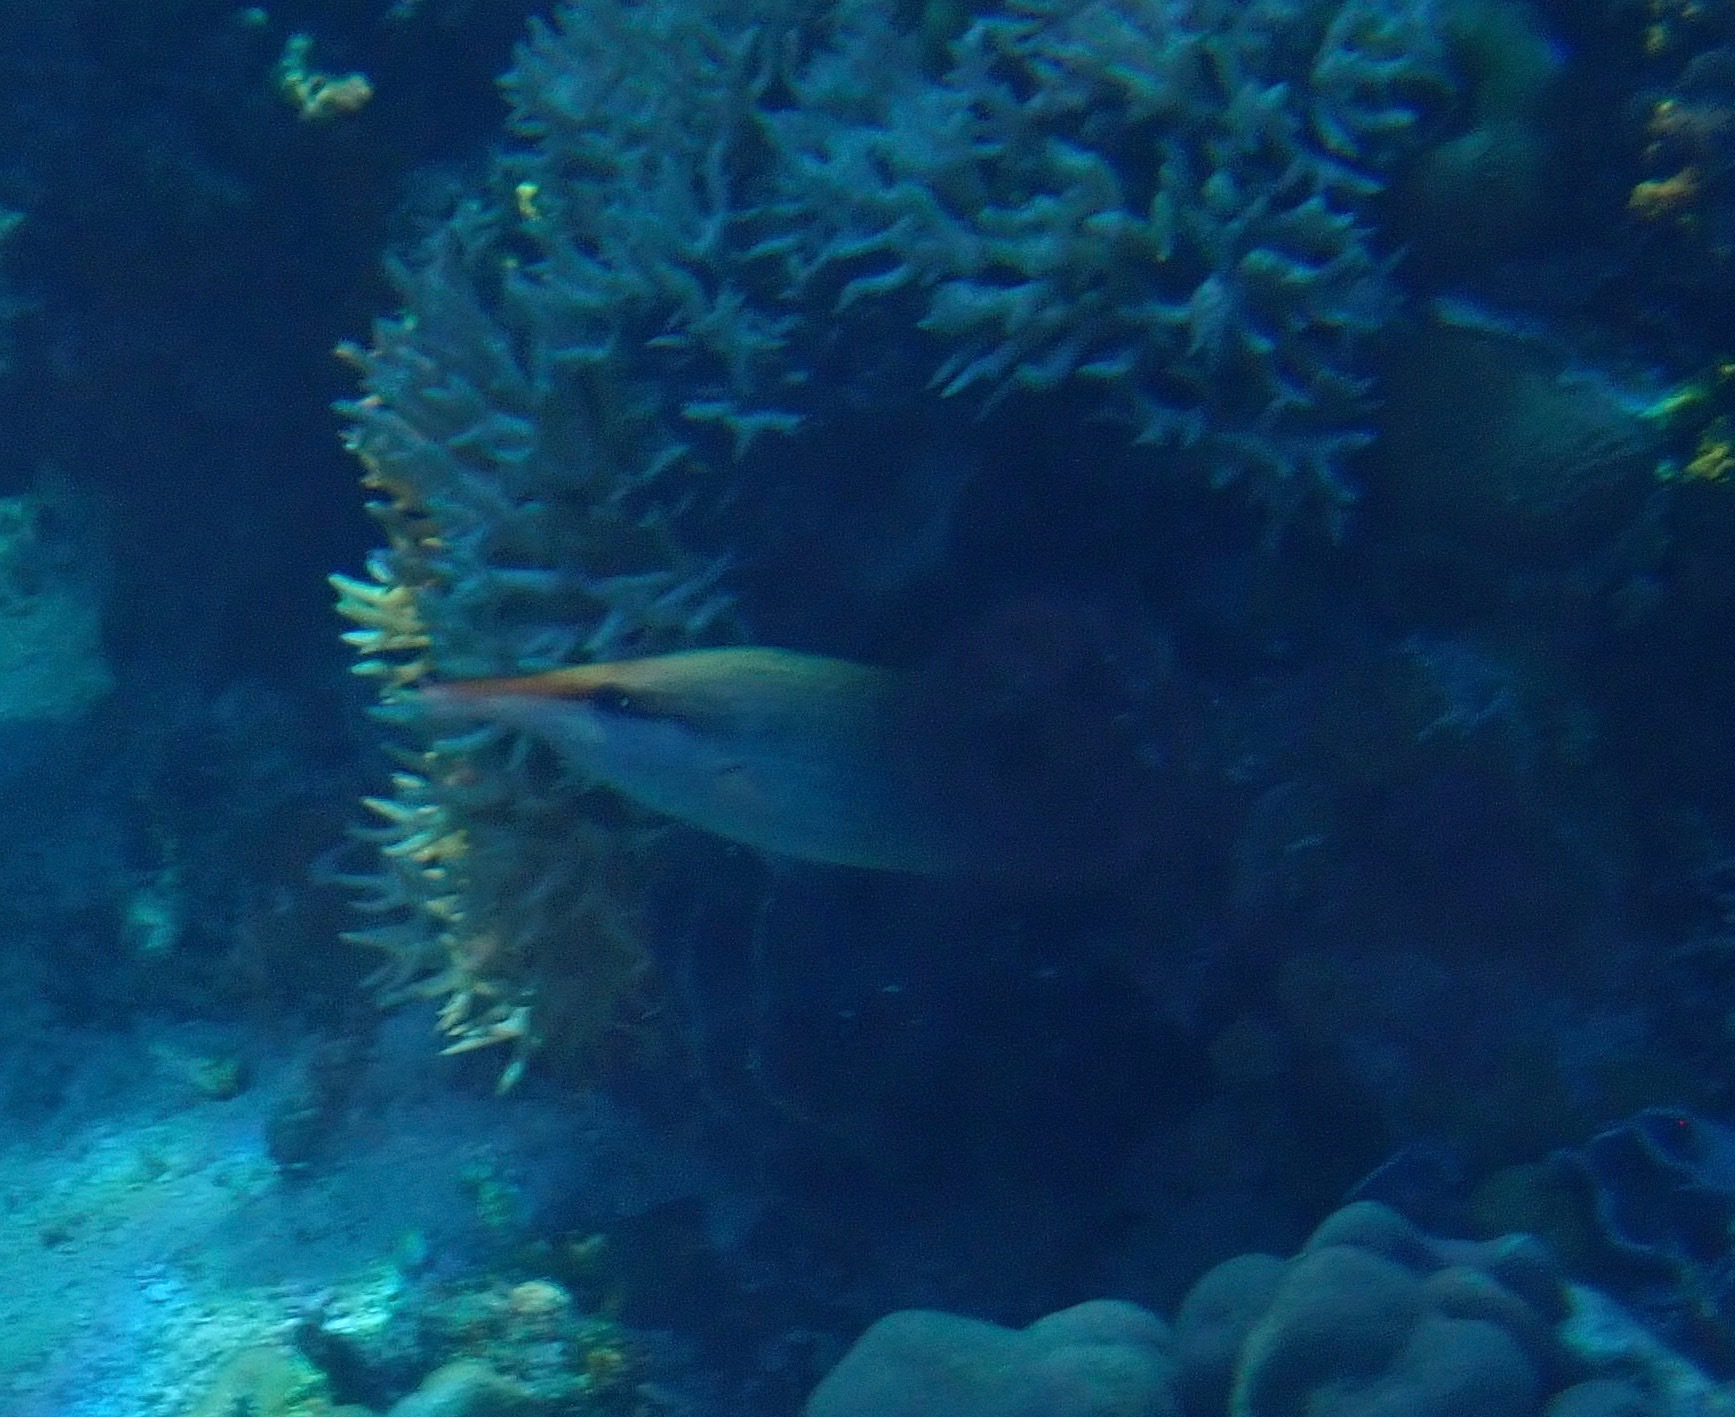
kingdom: Animalia
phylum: Chordata
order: Perciformes
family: Labridae
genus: Gomphosus
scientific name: Gomphosus varius
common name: Bird wrasse
